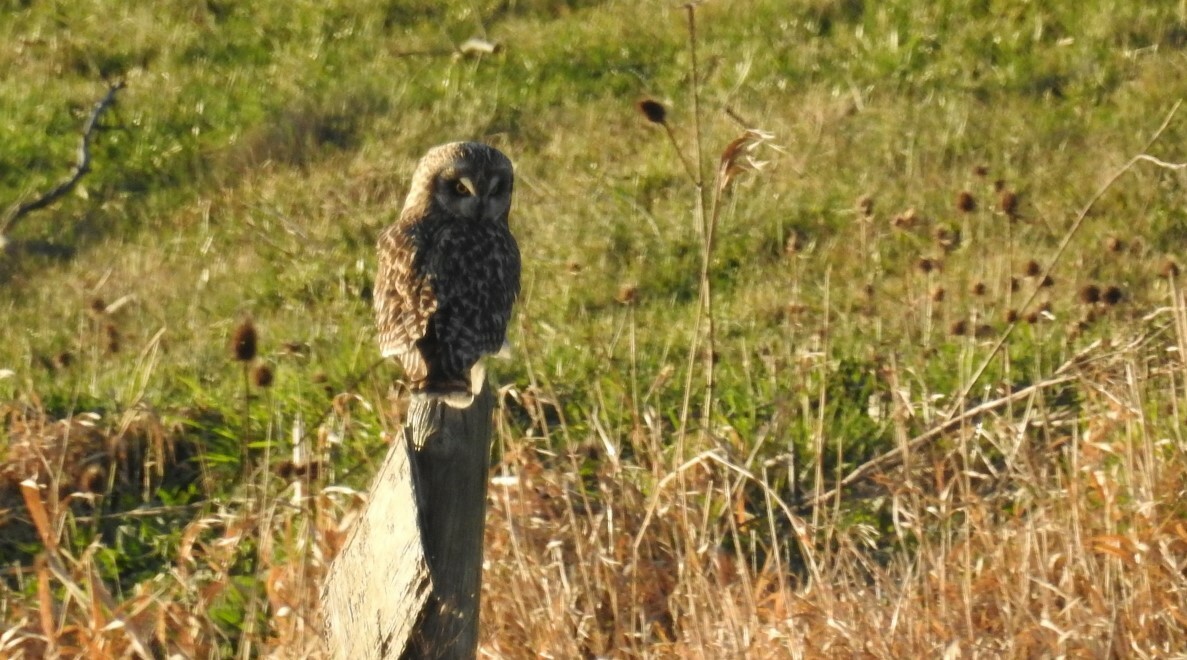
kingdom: Animalia
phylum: Chordata
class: Aves
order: Strigiformes
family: Strigidae
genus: Asio
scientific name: Asio flammeus
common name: Short-eared owl
